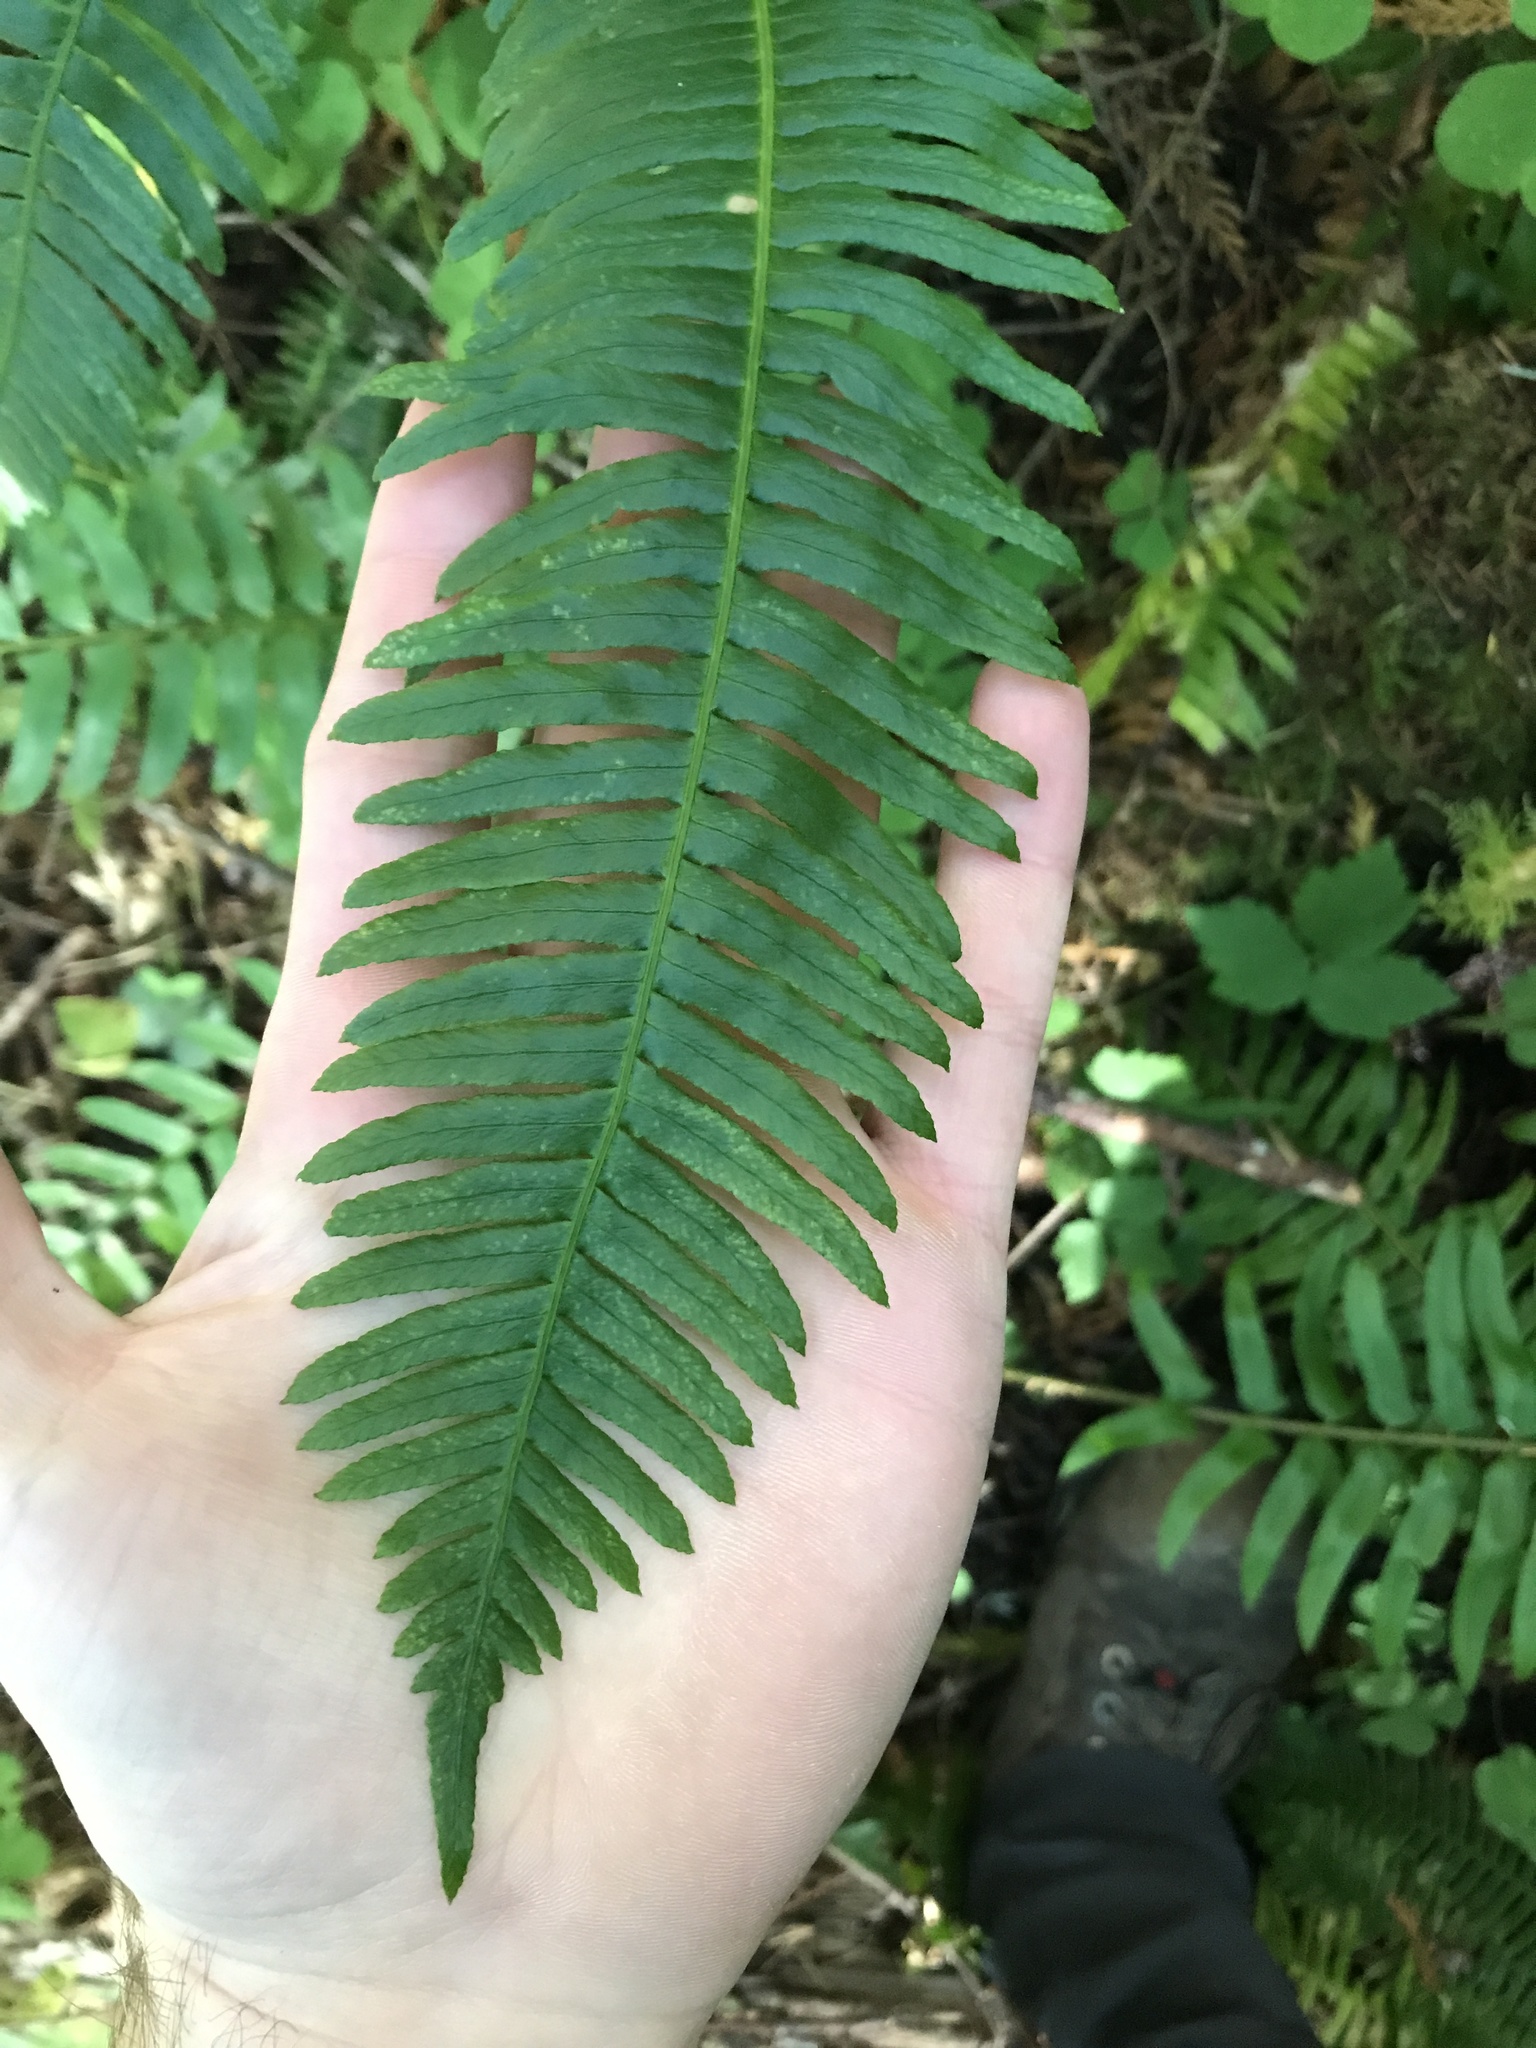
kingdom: Plantae
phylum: Tracheophyta
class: Polypodiopsida
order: Polypodiales
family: Blechnaceae
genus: Struthiopteris
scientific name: Struthiopteris spicant
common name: Deer fern
